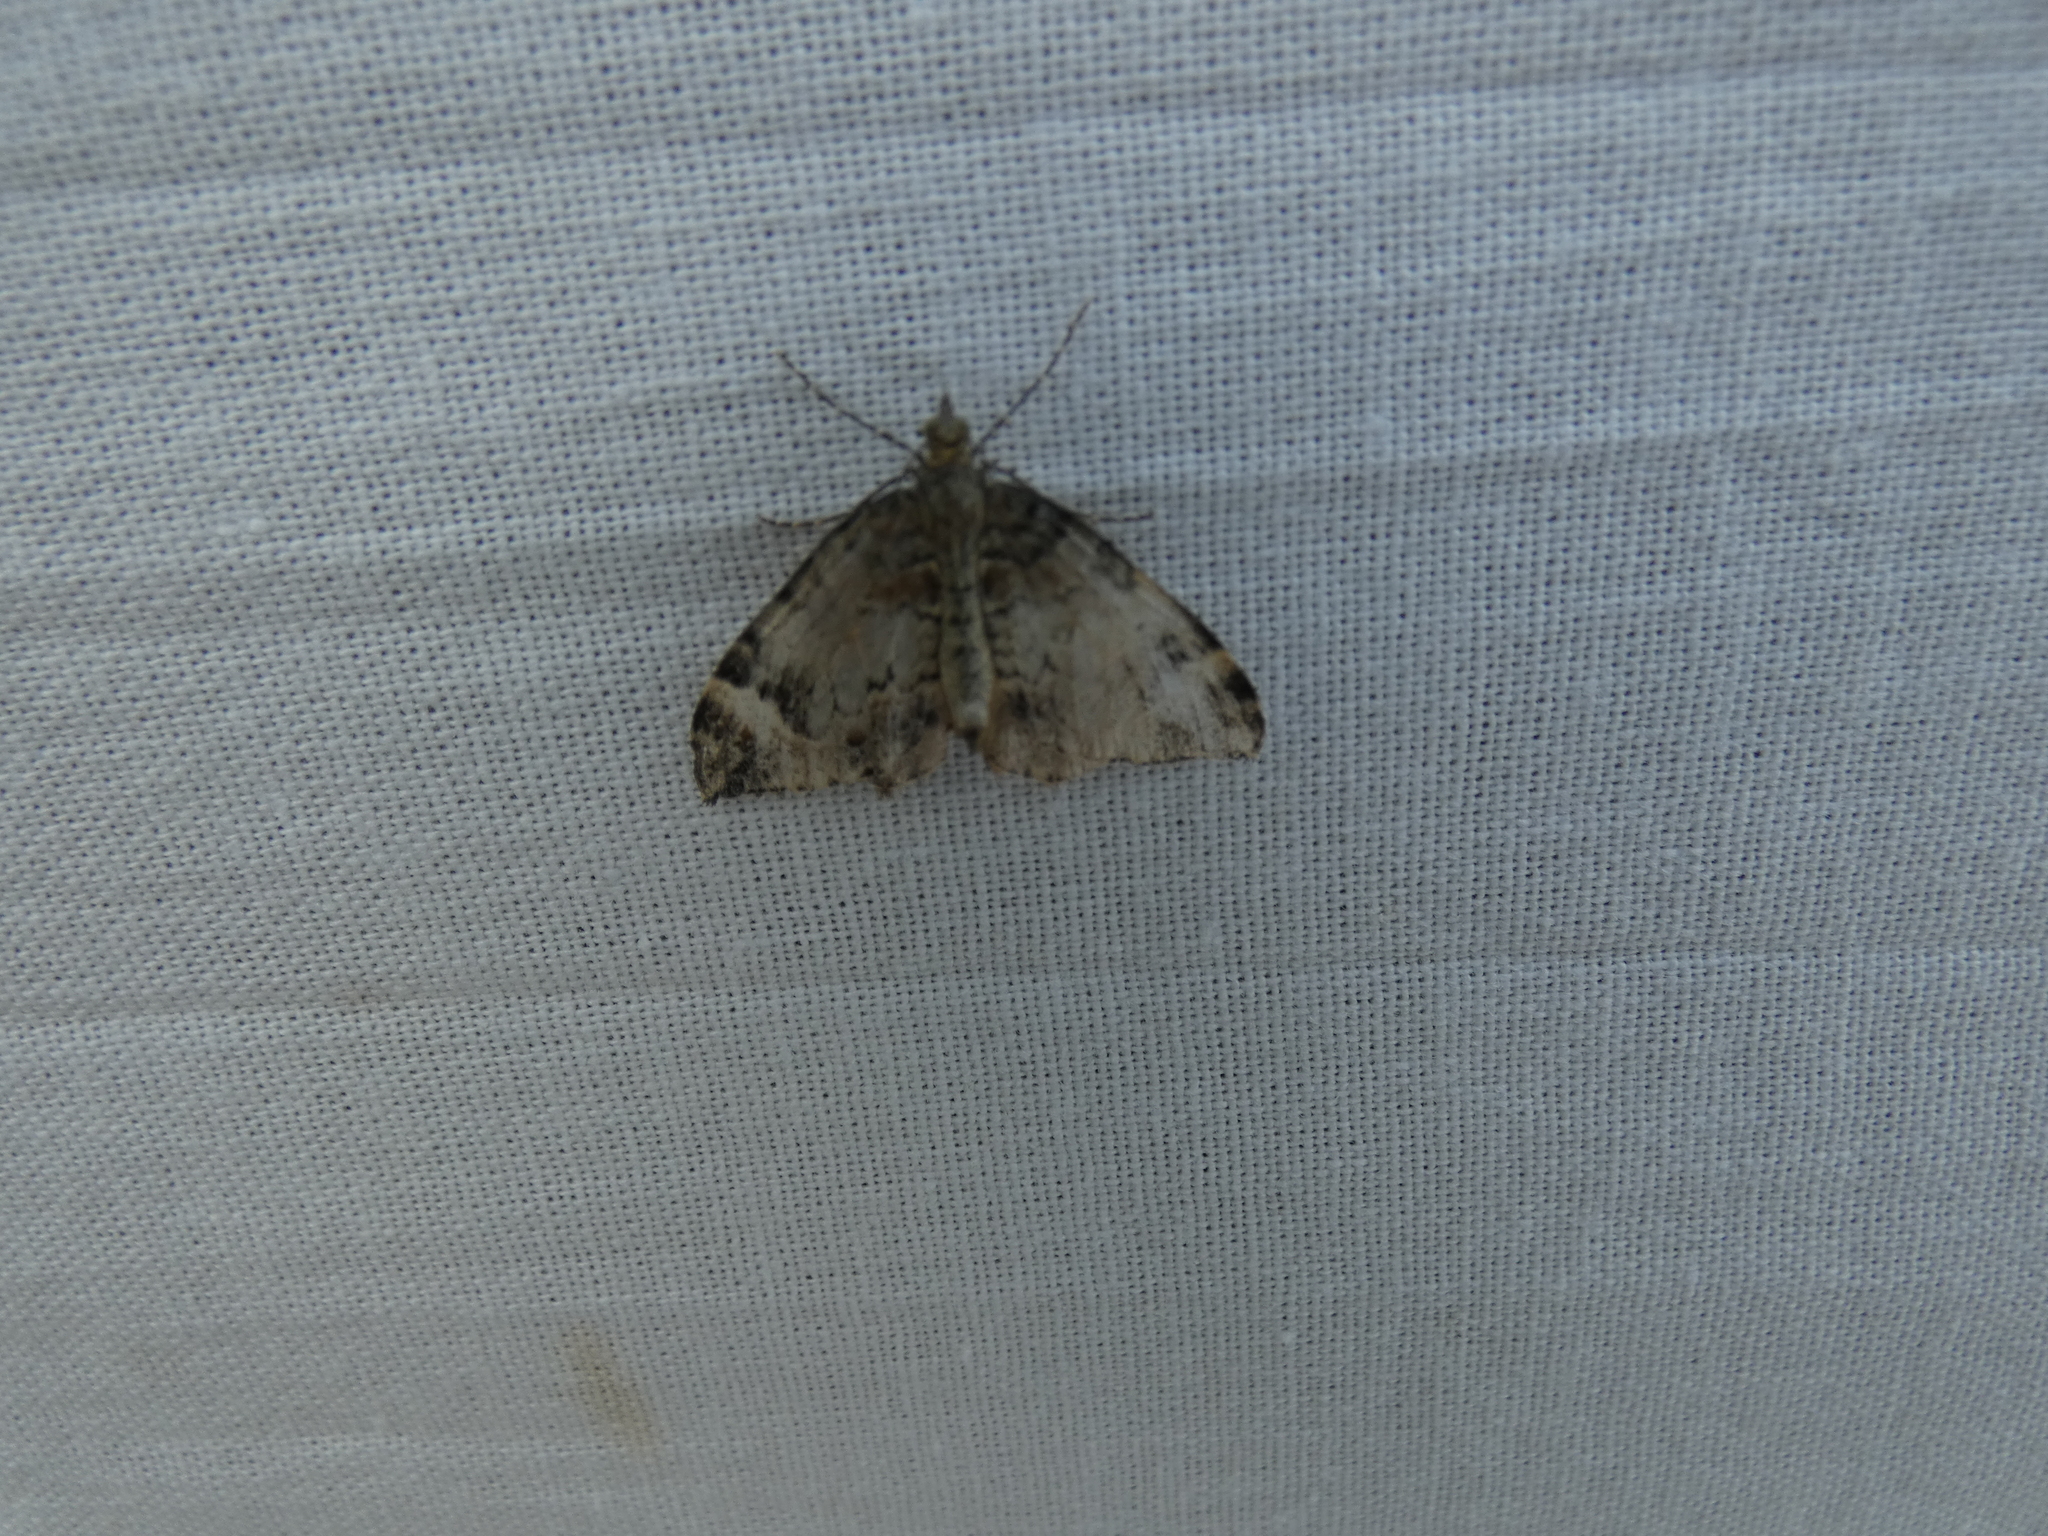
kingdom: Animalia
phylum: Arthropoda
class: Insecta
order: Lepidoptera
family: Geometridae
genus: Dysstroma
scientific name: Dysstroma citrata
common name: Dark marbled carpet
